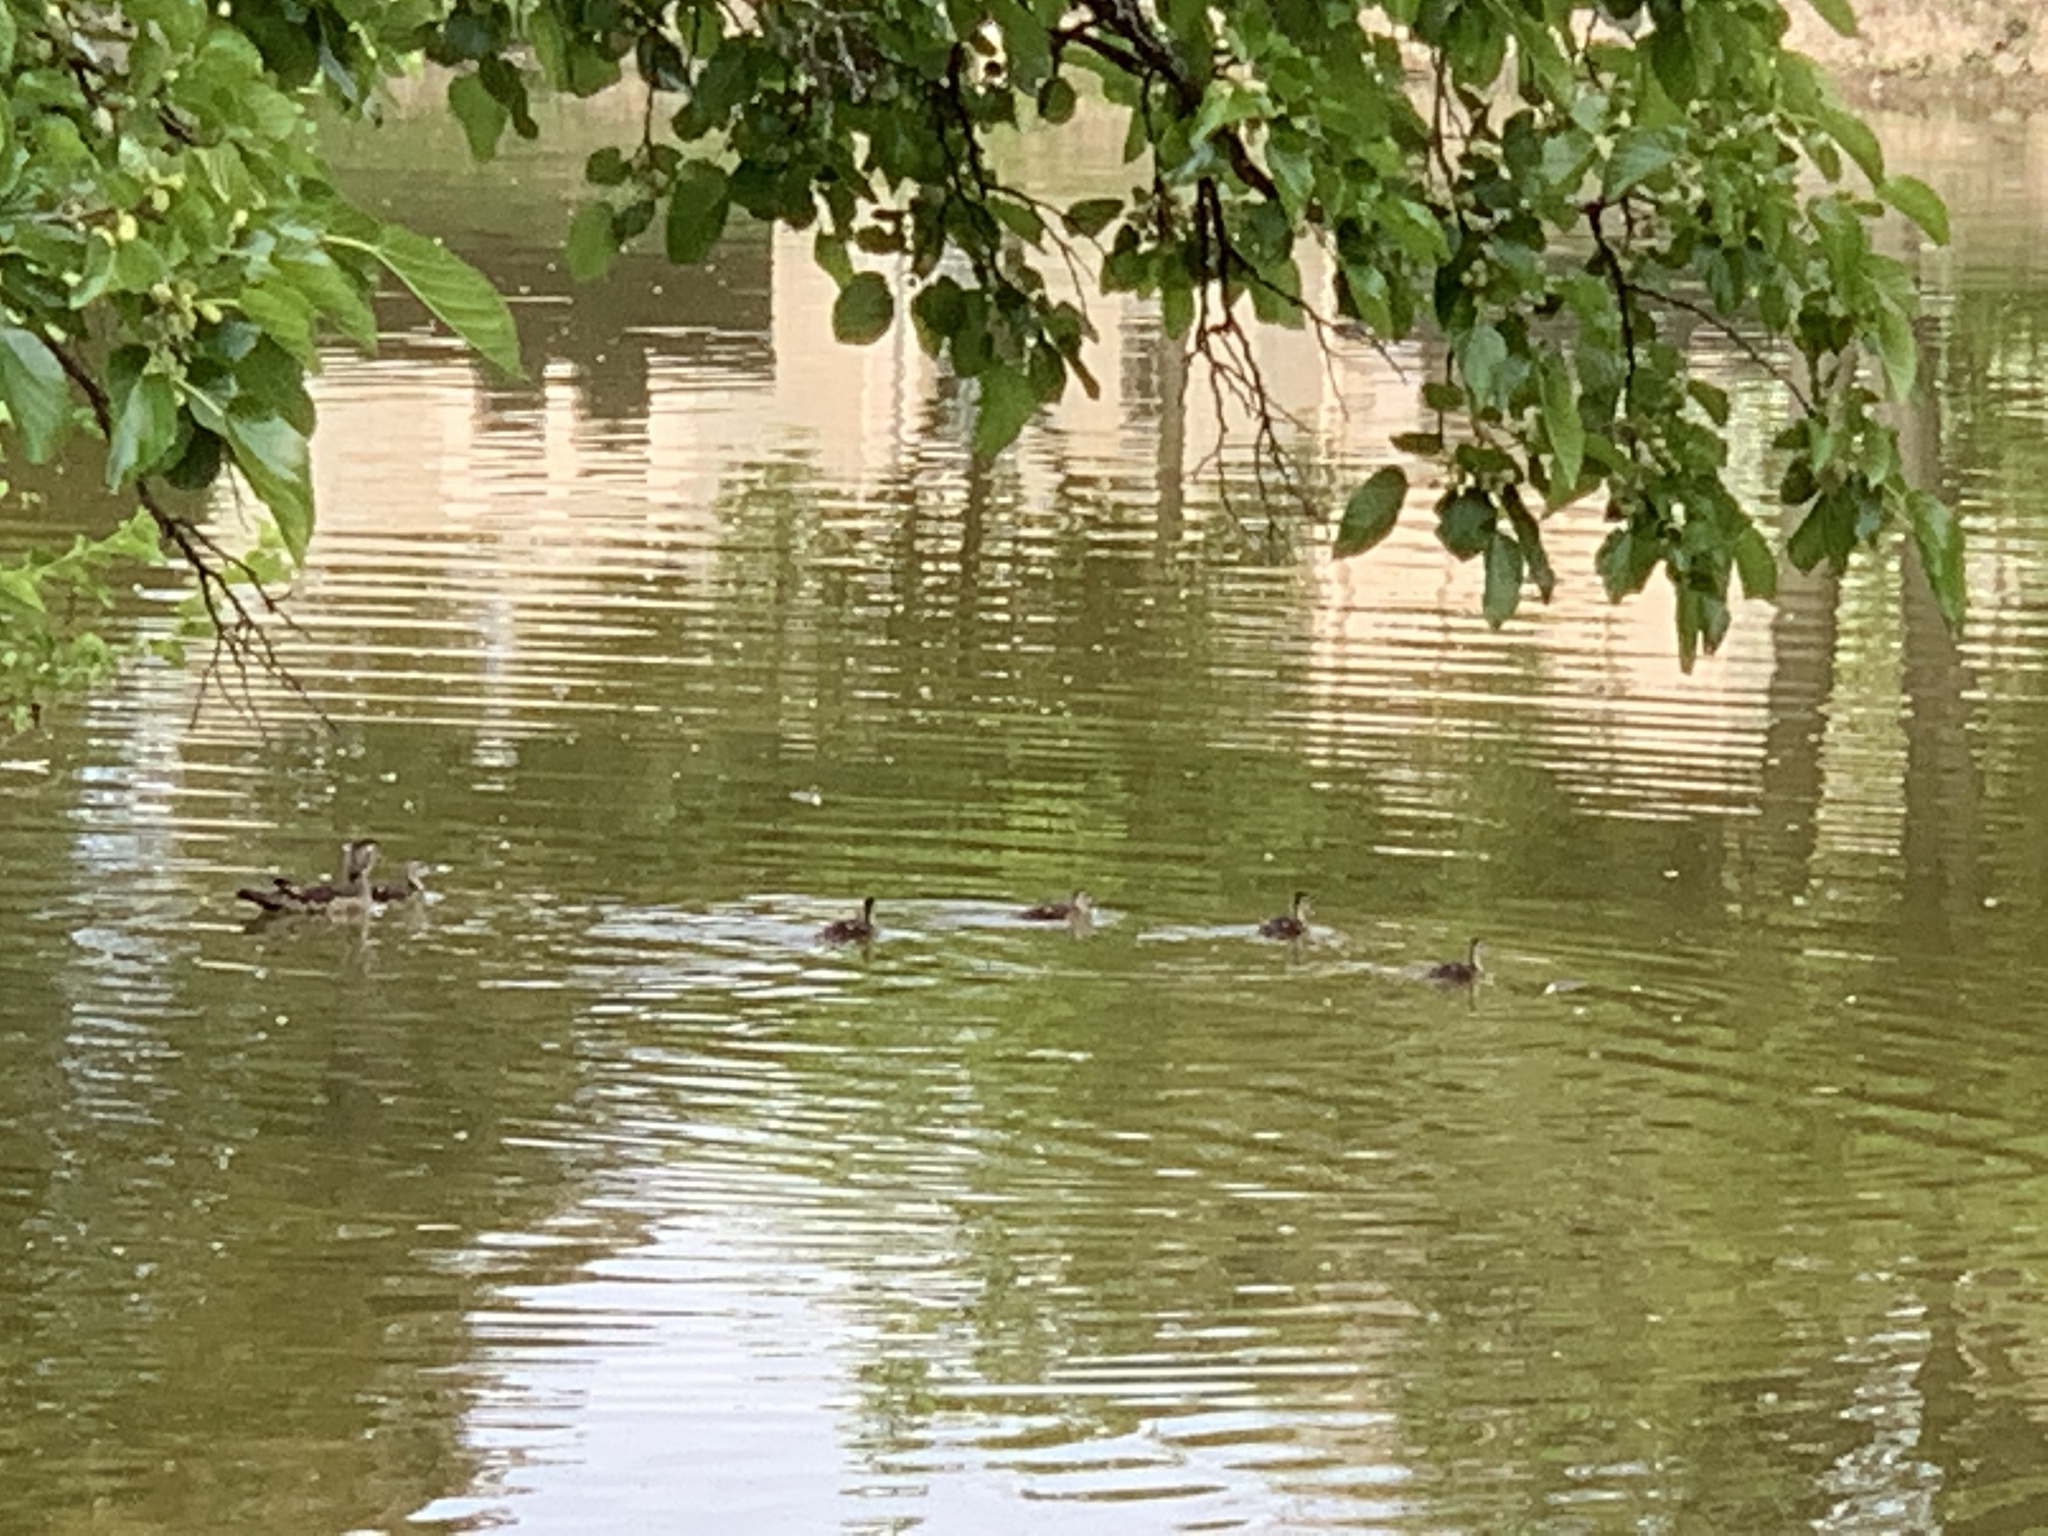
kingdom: Animalia
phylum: Chordata
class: Aves
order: Anseriformes
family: Anatidae
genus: Aix
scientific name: Aix sponsa
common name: Wood duck
